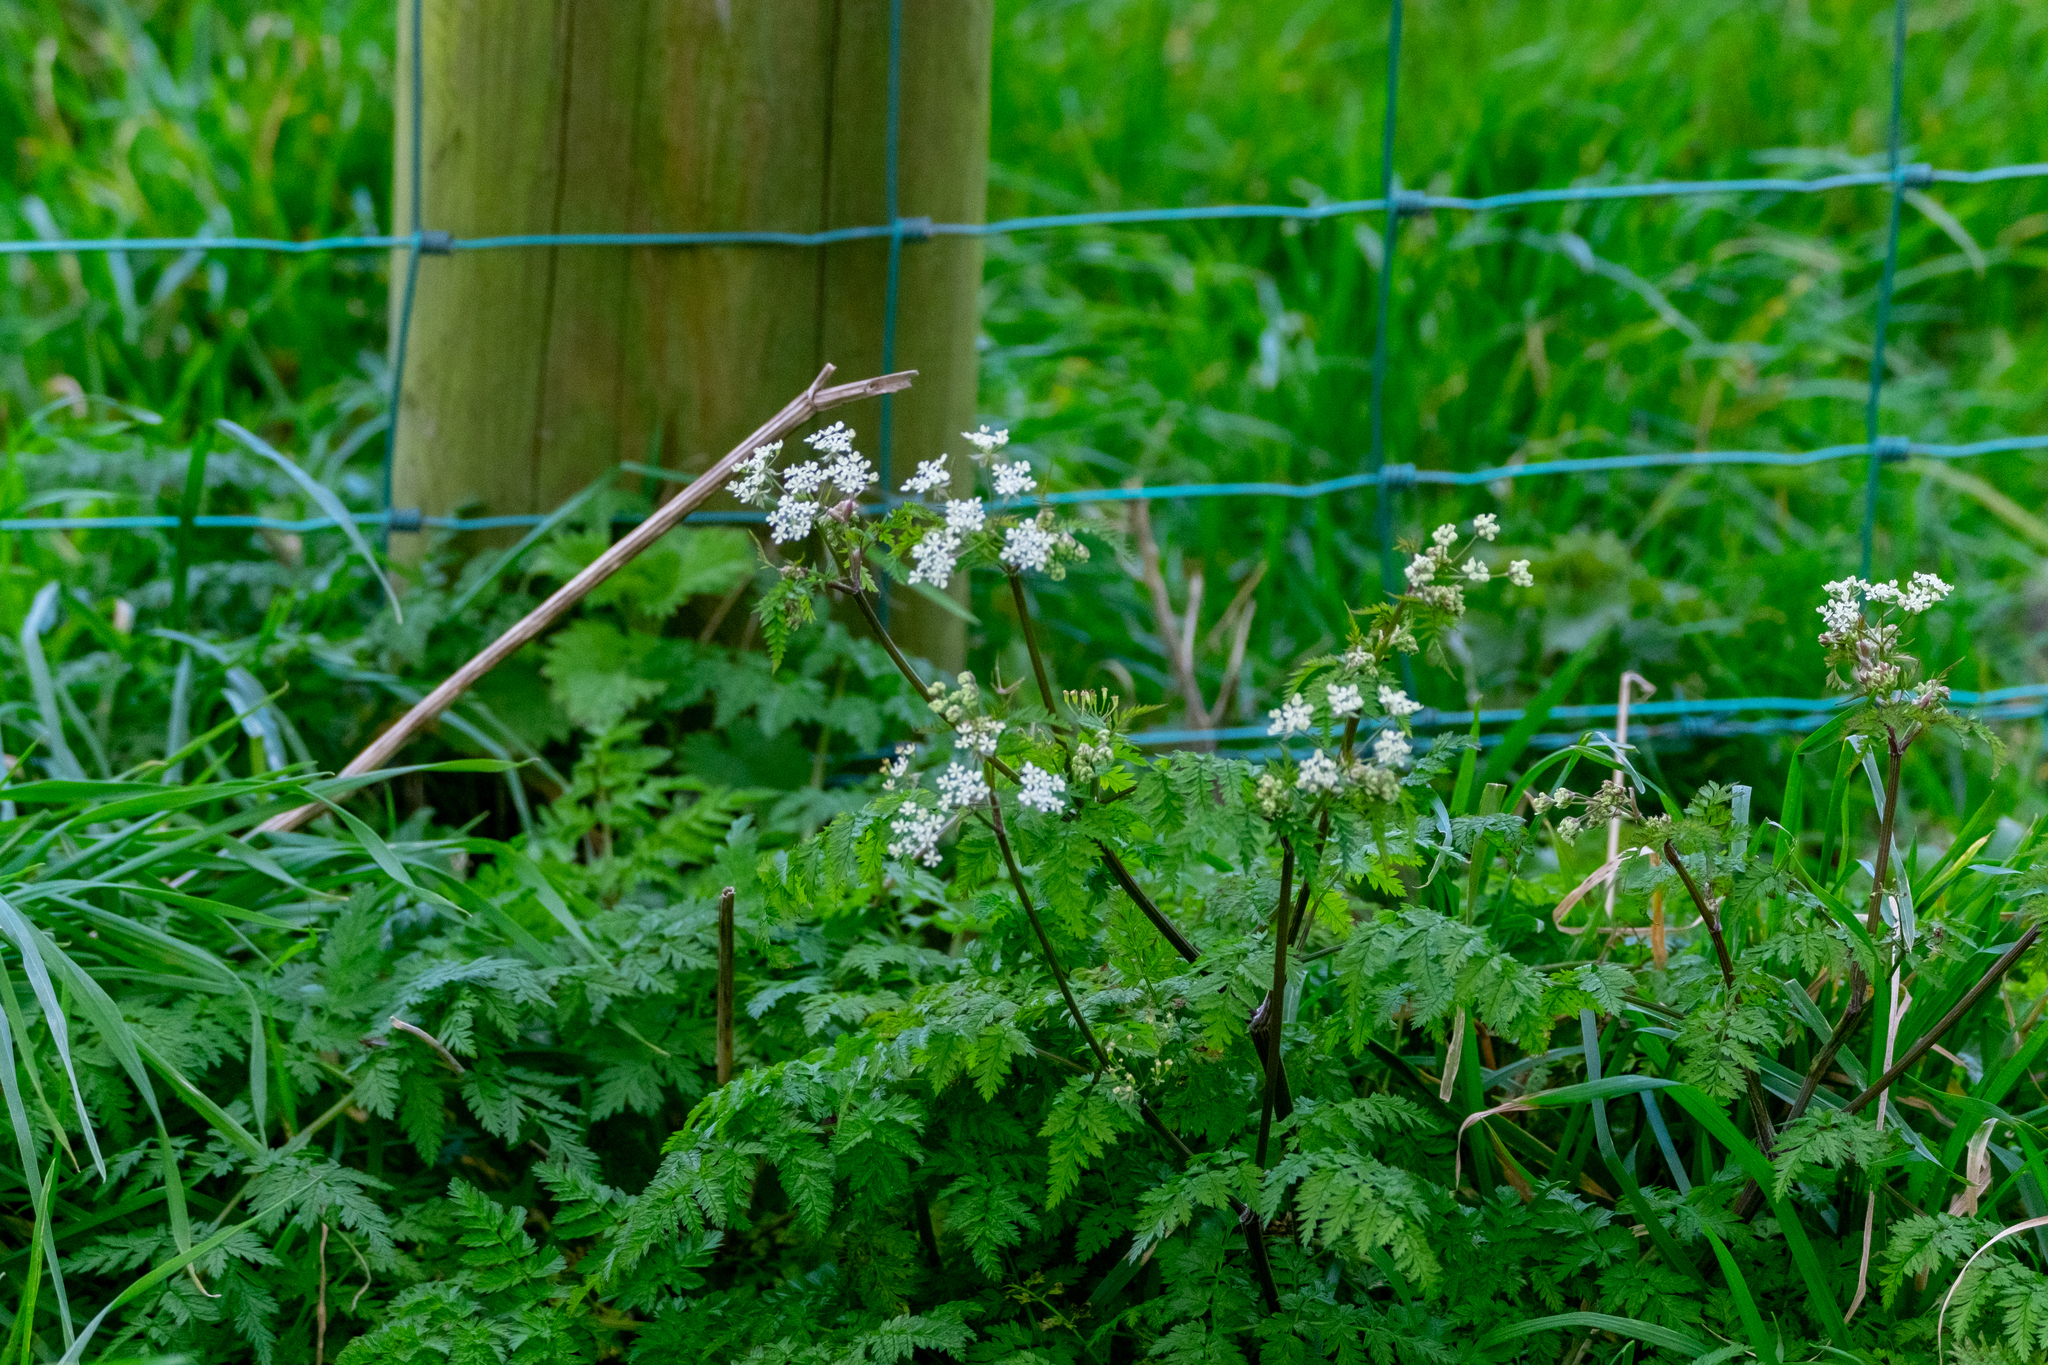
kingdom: Plantae
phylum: Tracheophyta
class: Magnoliopsida
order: Apiales
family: Apiaceae
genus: Anthriscus
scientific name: Anthriscus sylvestris
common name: Cow parsley
